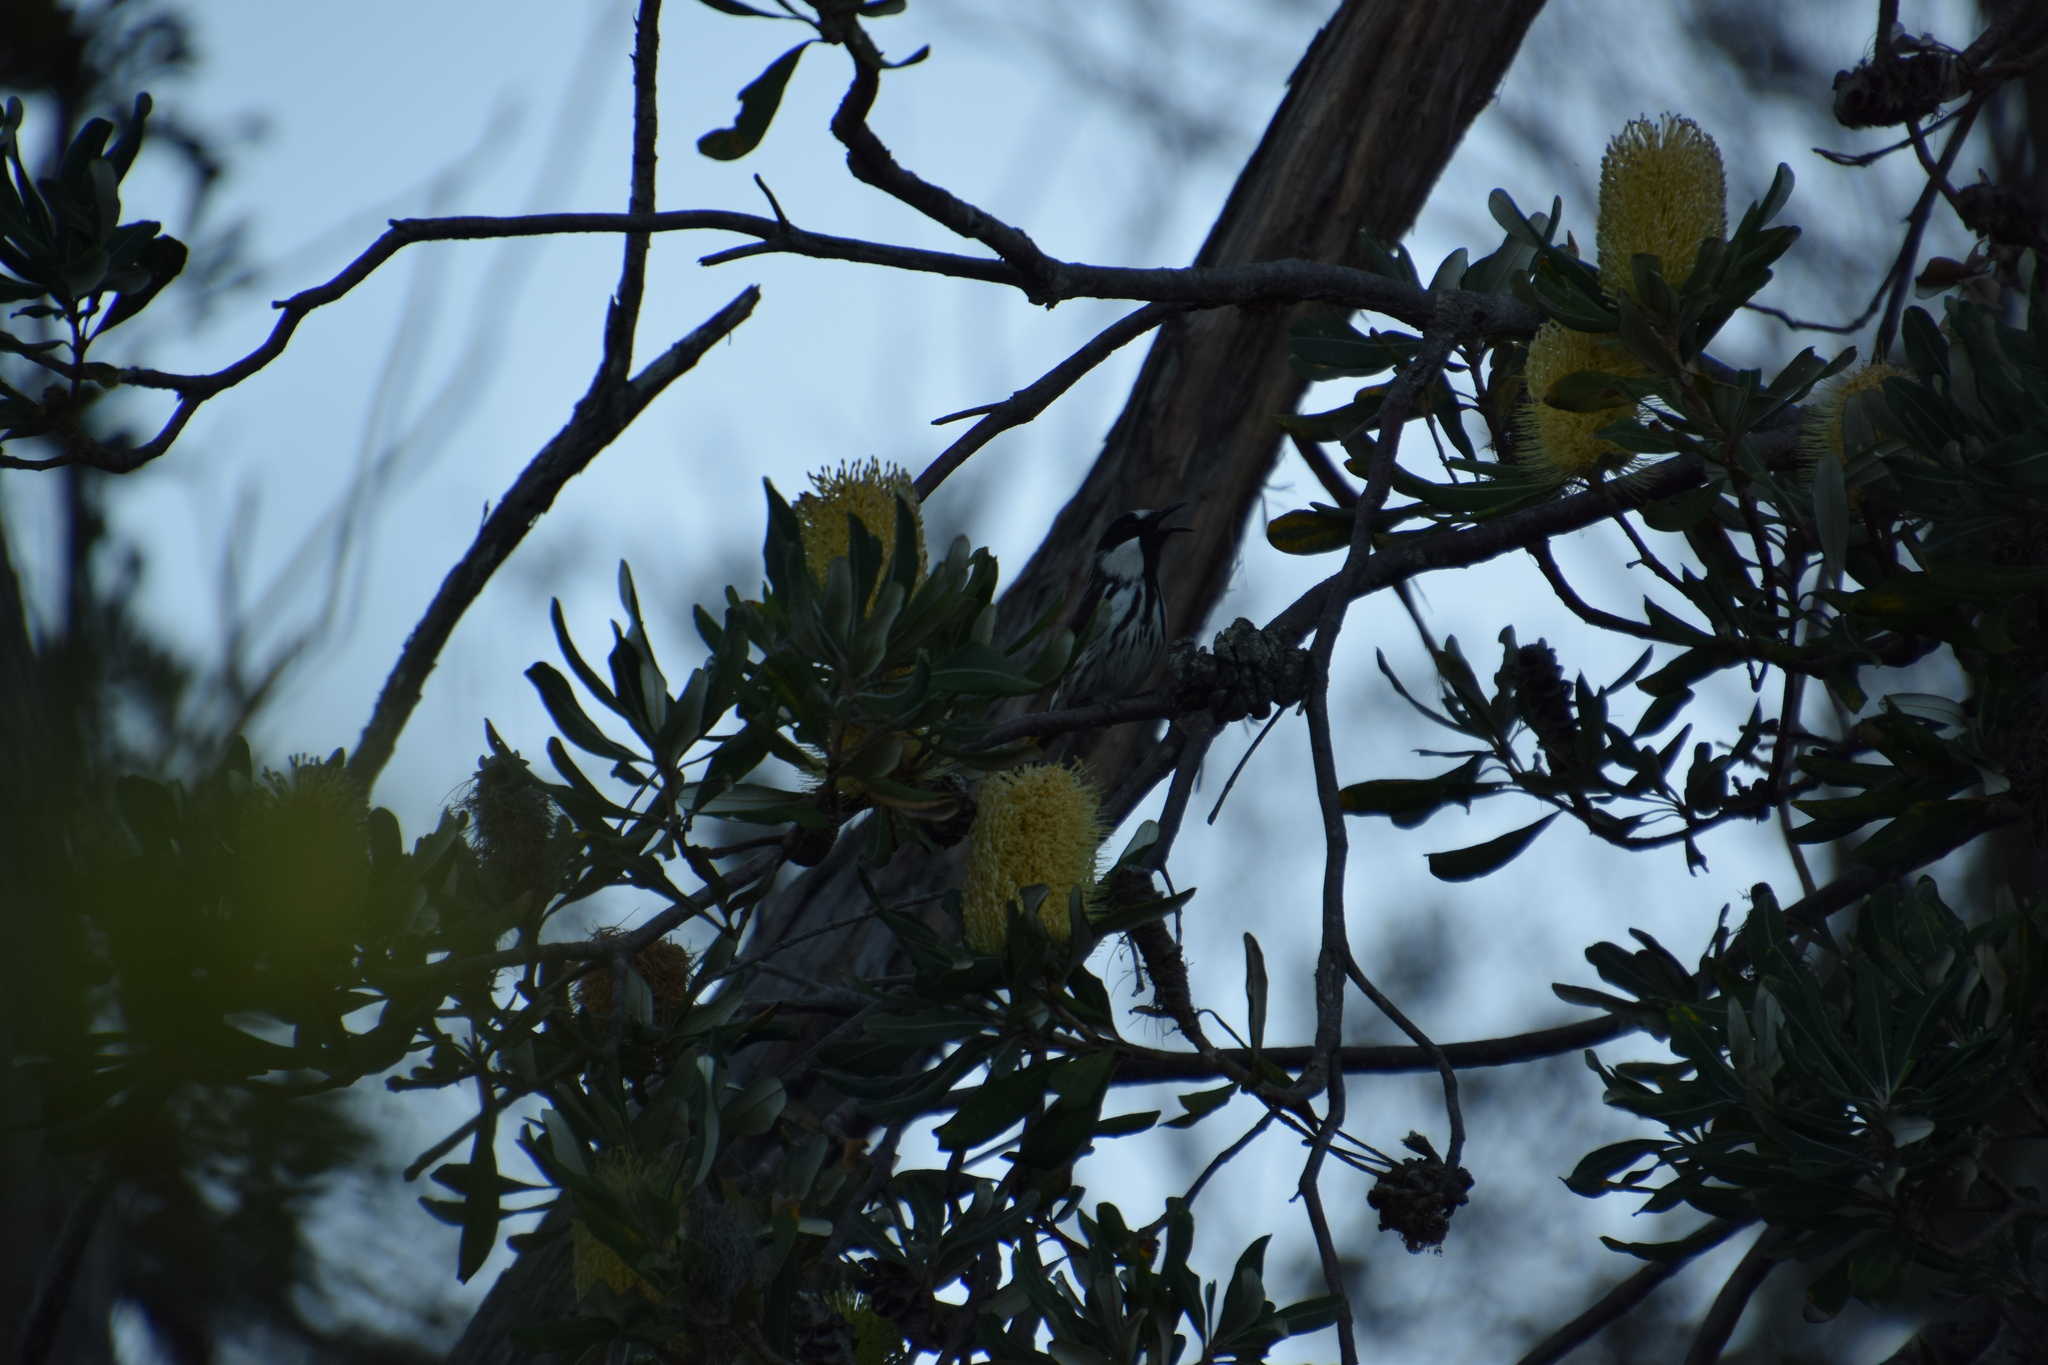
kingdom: Animalia
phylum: Chordata
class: Aves
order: Passeriformes
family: Meliphagidae
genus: Phylidonyris
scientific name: Phylidonyris niger
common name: White-cheeked honeyeater
